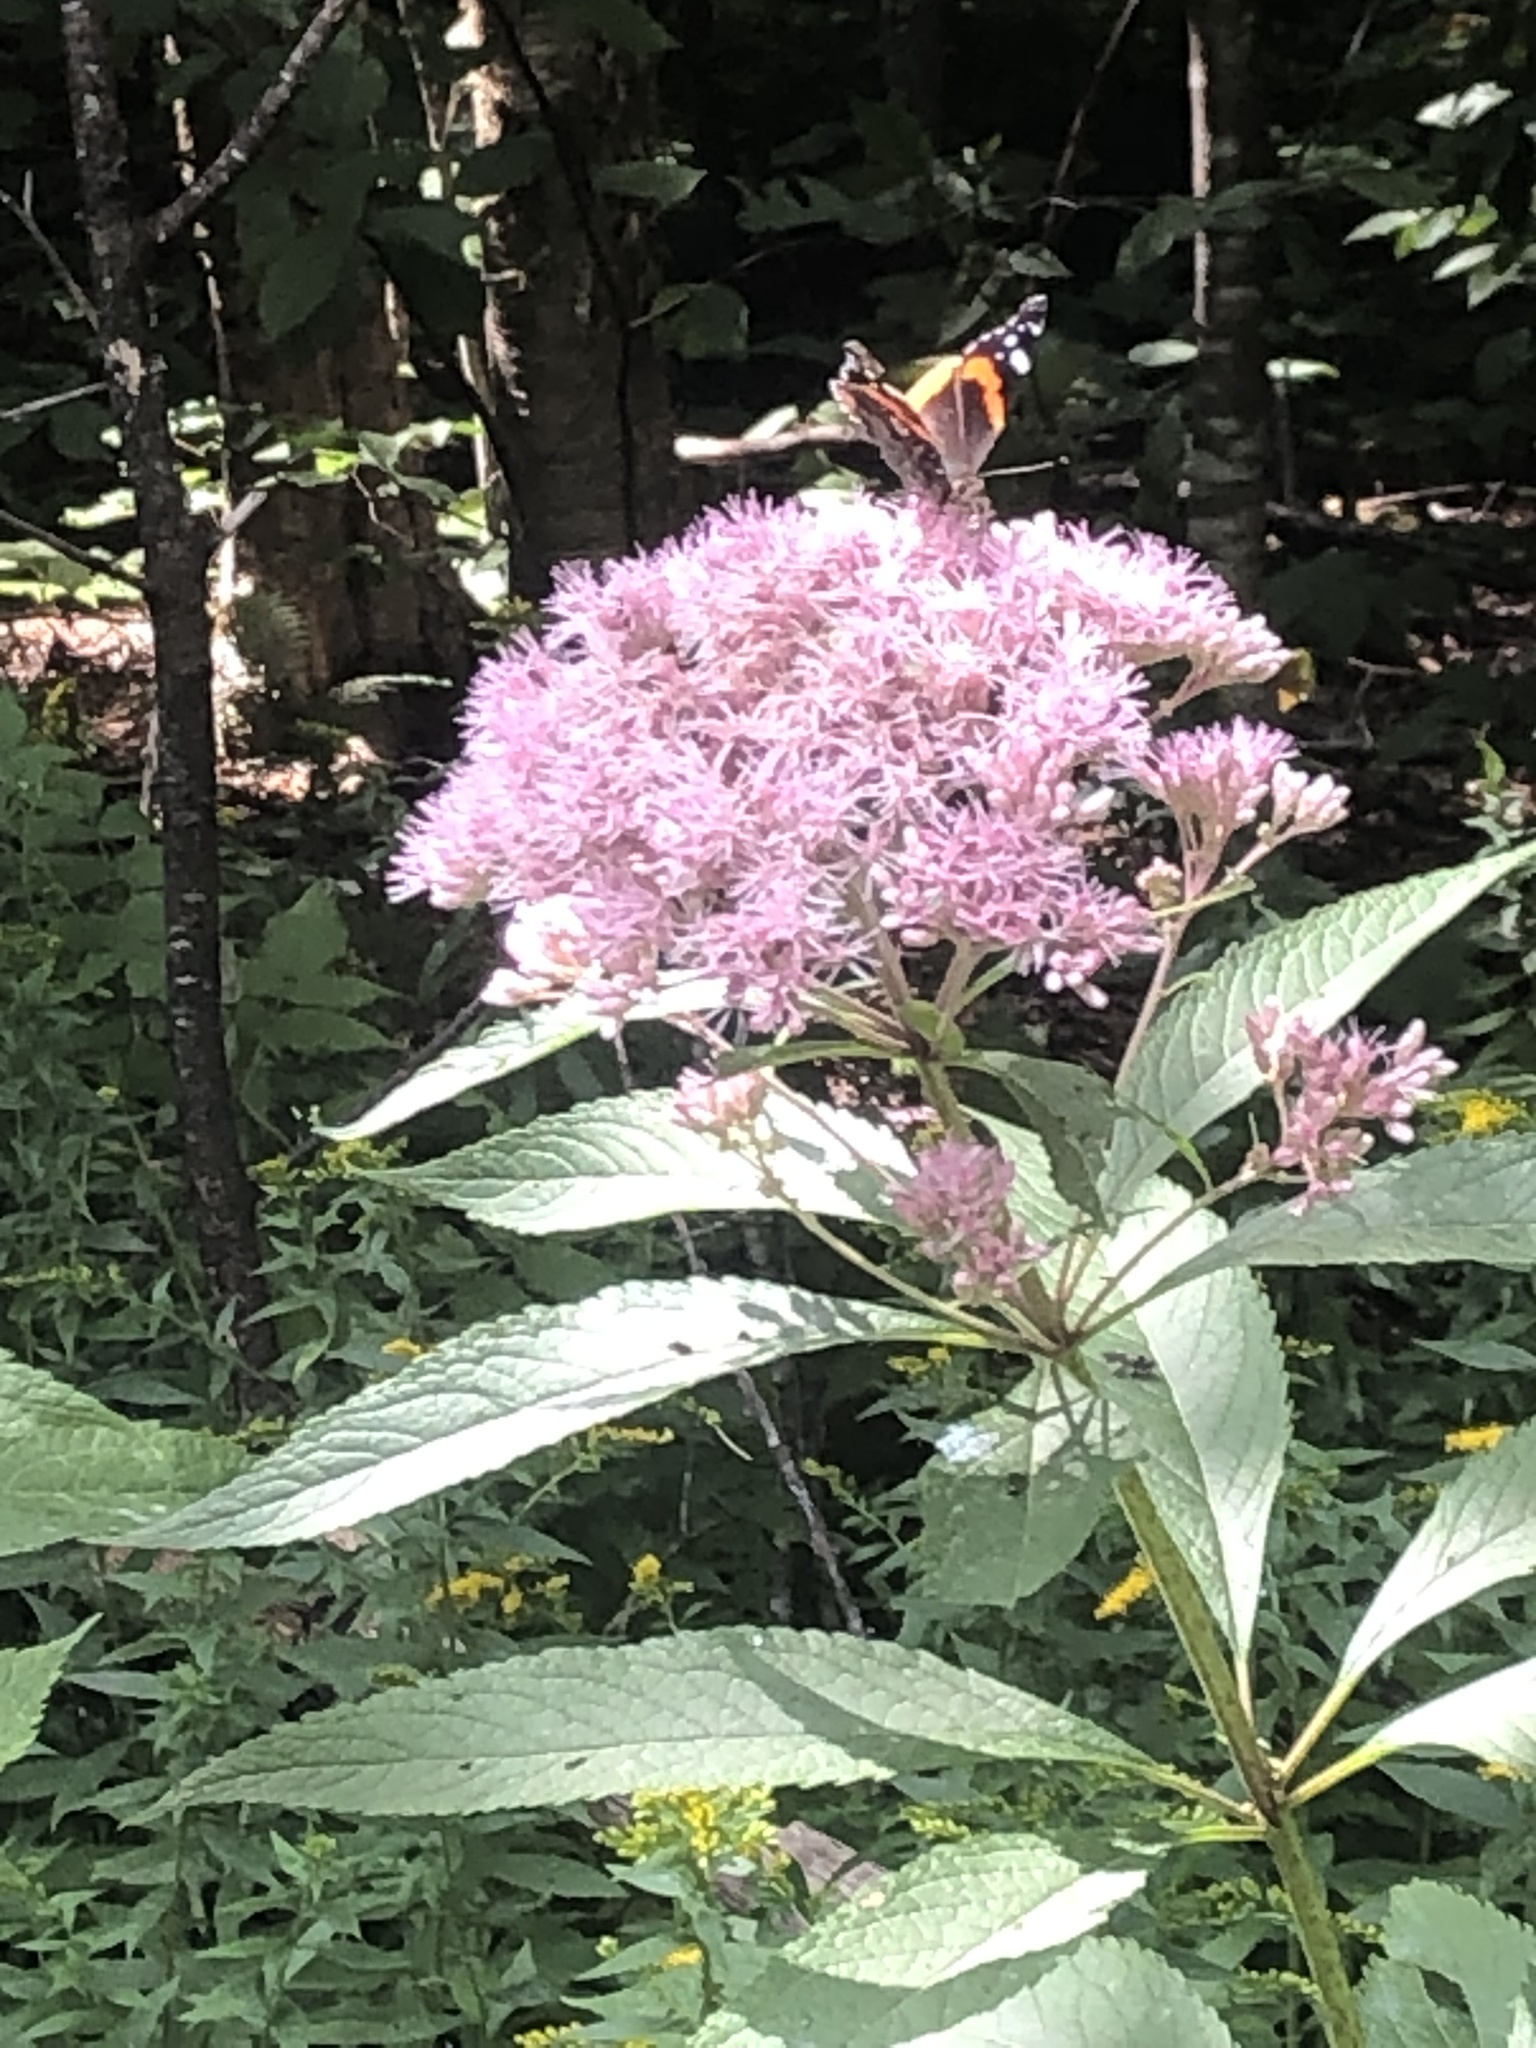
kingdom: Animalia
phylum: Arthropoda
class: Insecta
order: Lepidoptera
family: Nymphalidae
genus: Vanessa
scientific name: Vanessa atalanta
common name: Red admiral
